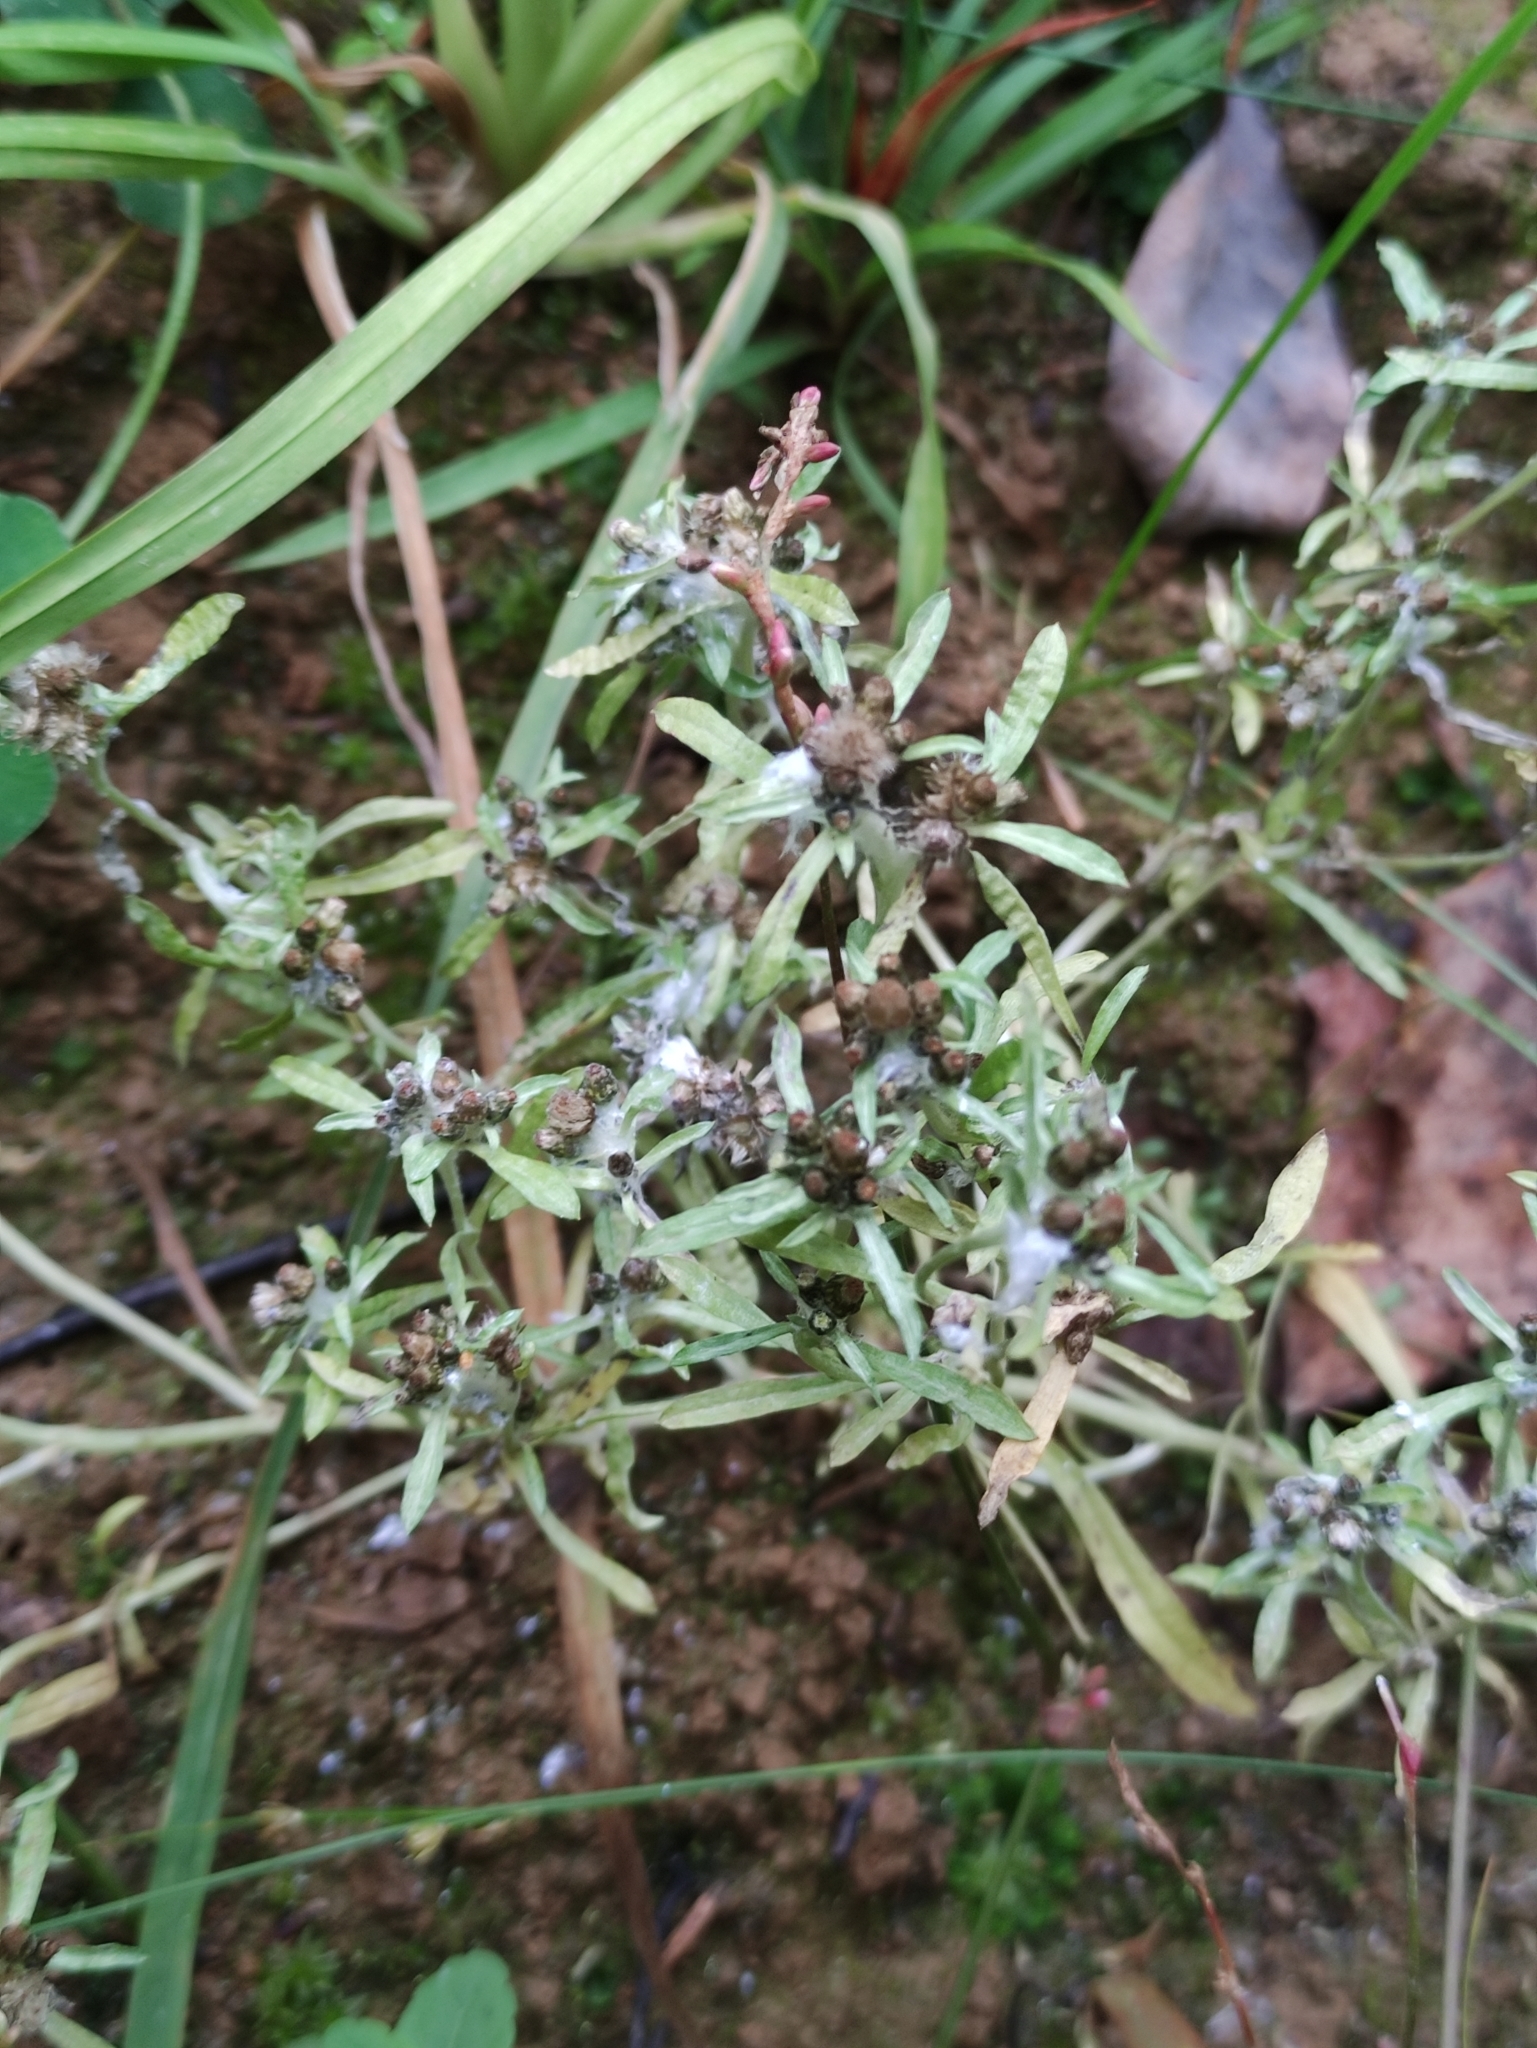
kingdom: Plantae
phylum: Tracheophyta
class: Magnoliopsida
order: Asterales
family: Asteraceae
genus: Gnaphalium
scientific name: Gnaphalium uliginosum
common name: Marsh cudweed
